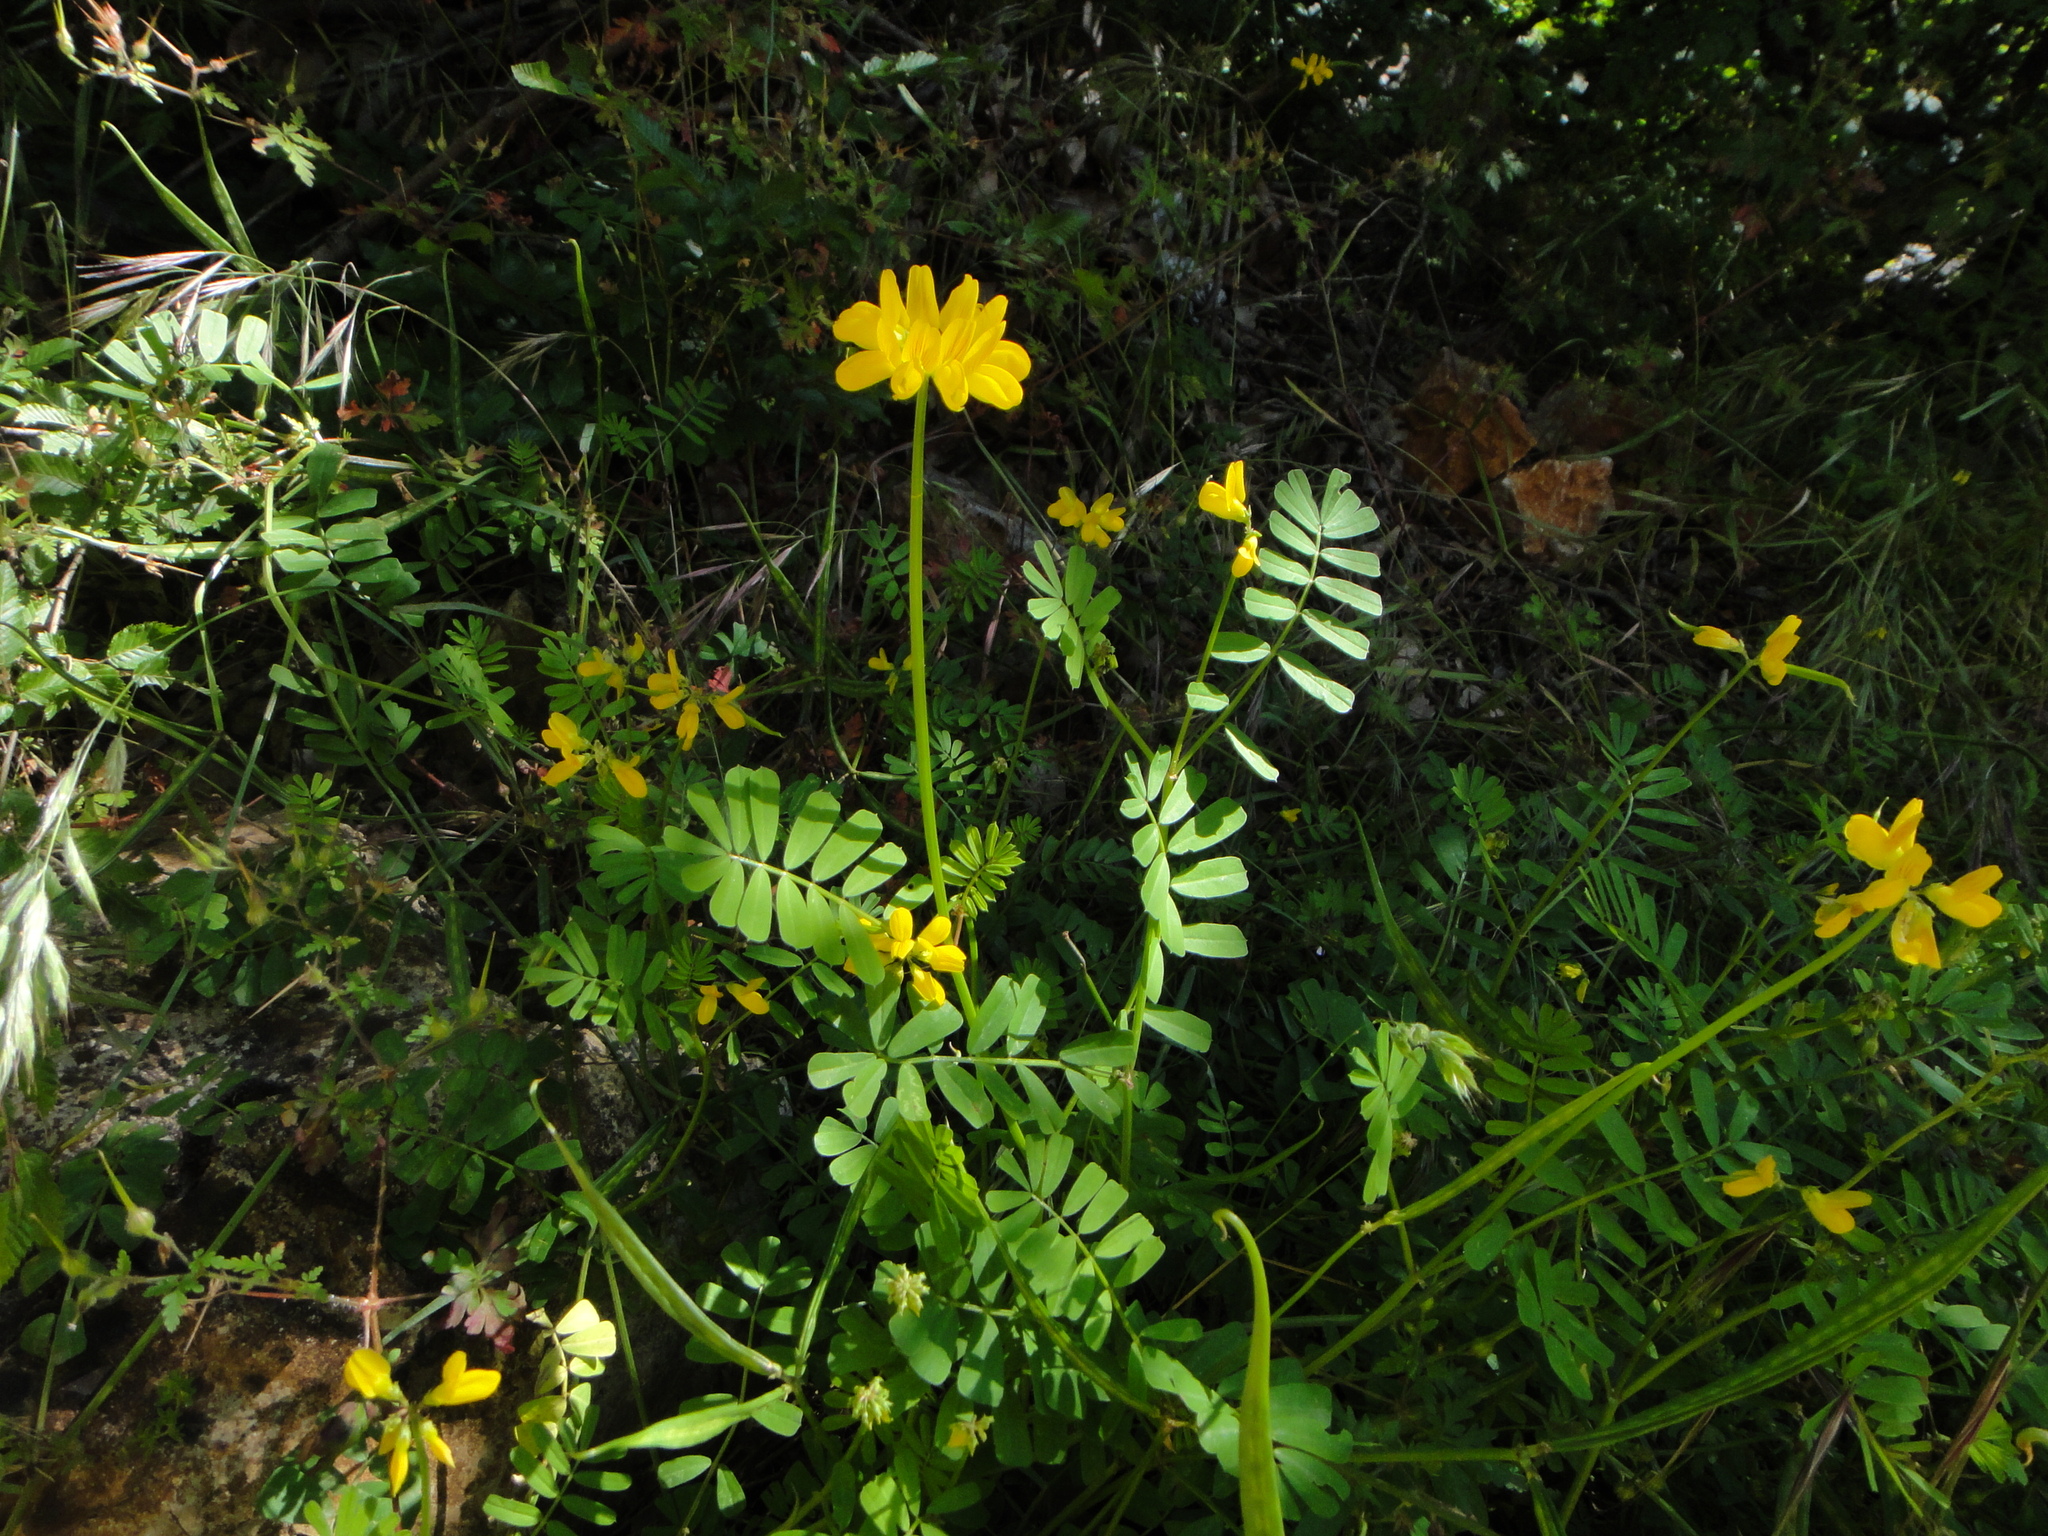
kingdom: Plantae
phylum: Tracheophyta
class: Magnoliopsida
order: Fabales
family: Fabaceae
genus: Coronilla
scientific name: Coronilla securidaca
